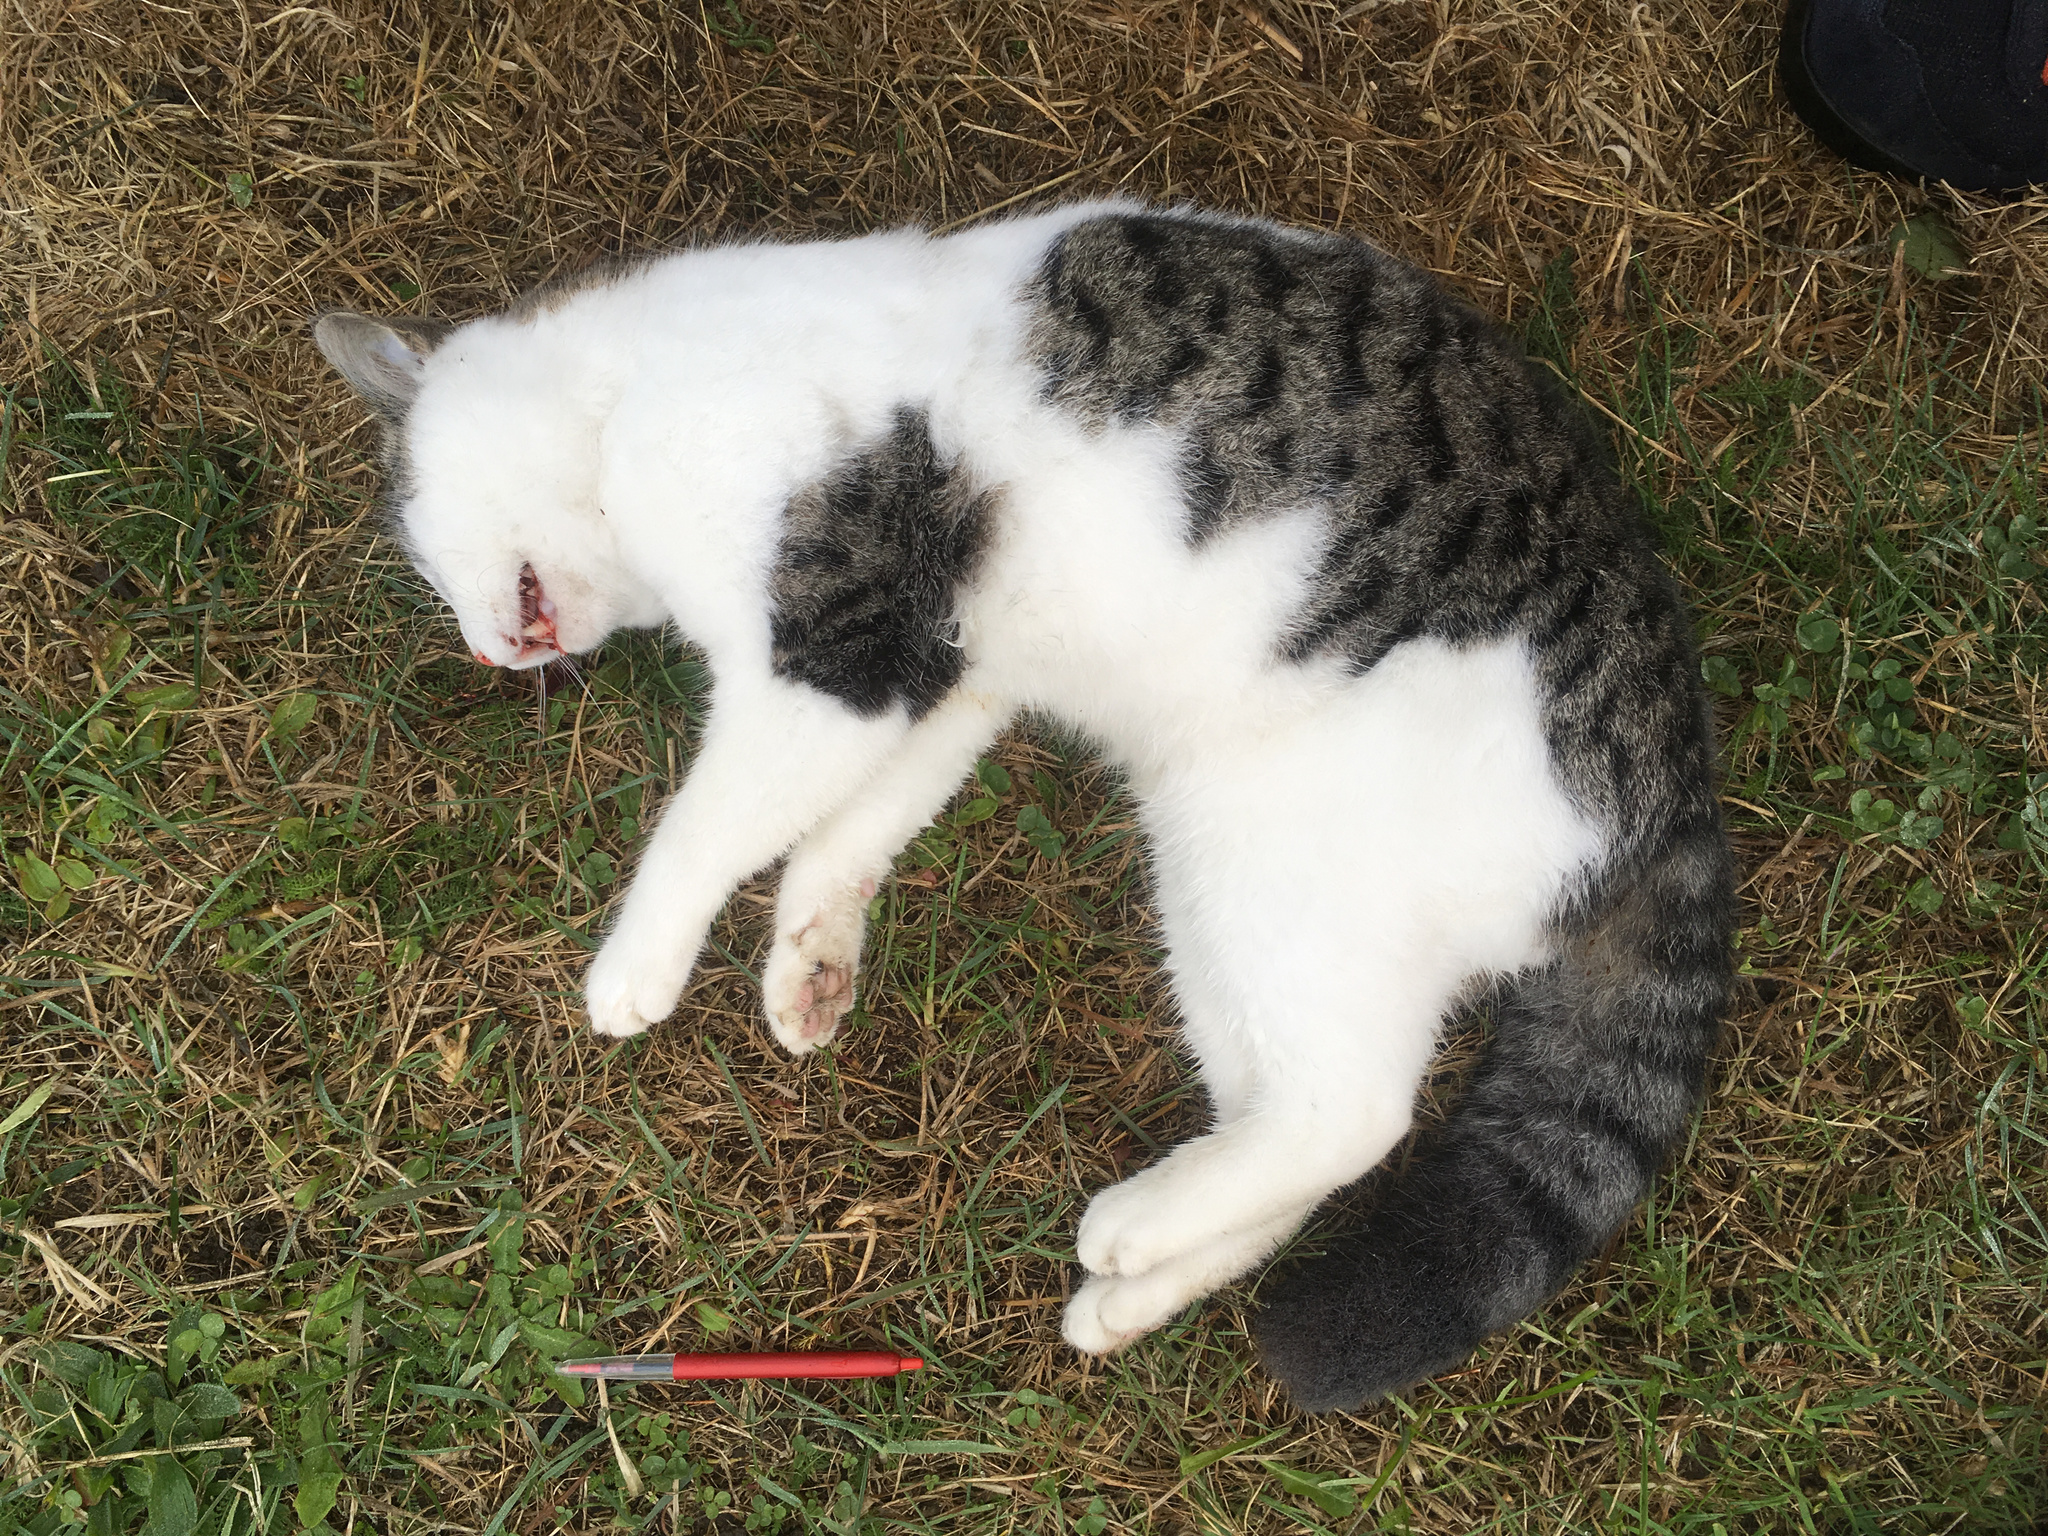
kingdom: Animalia
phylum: Chordata
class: Mammalia
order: Carnivora
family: Felidae
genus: Felis
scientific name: Felis catus
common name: Domestic cat
